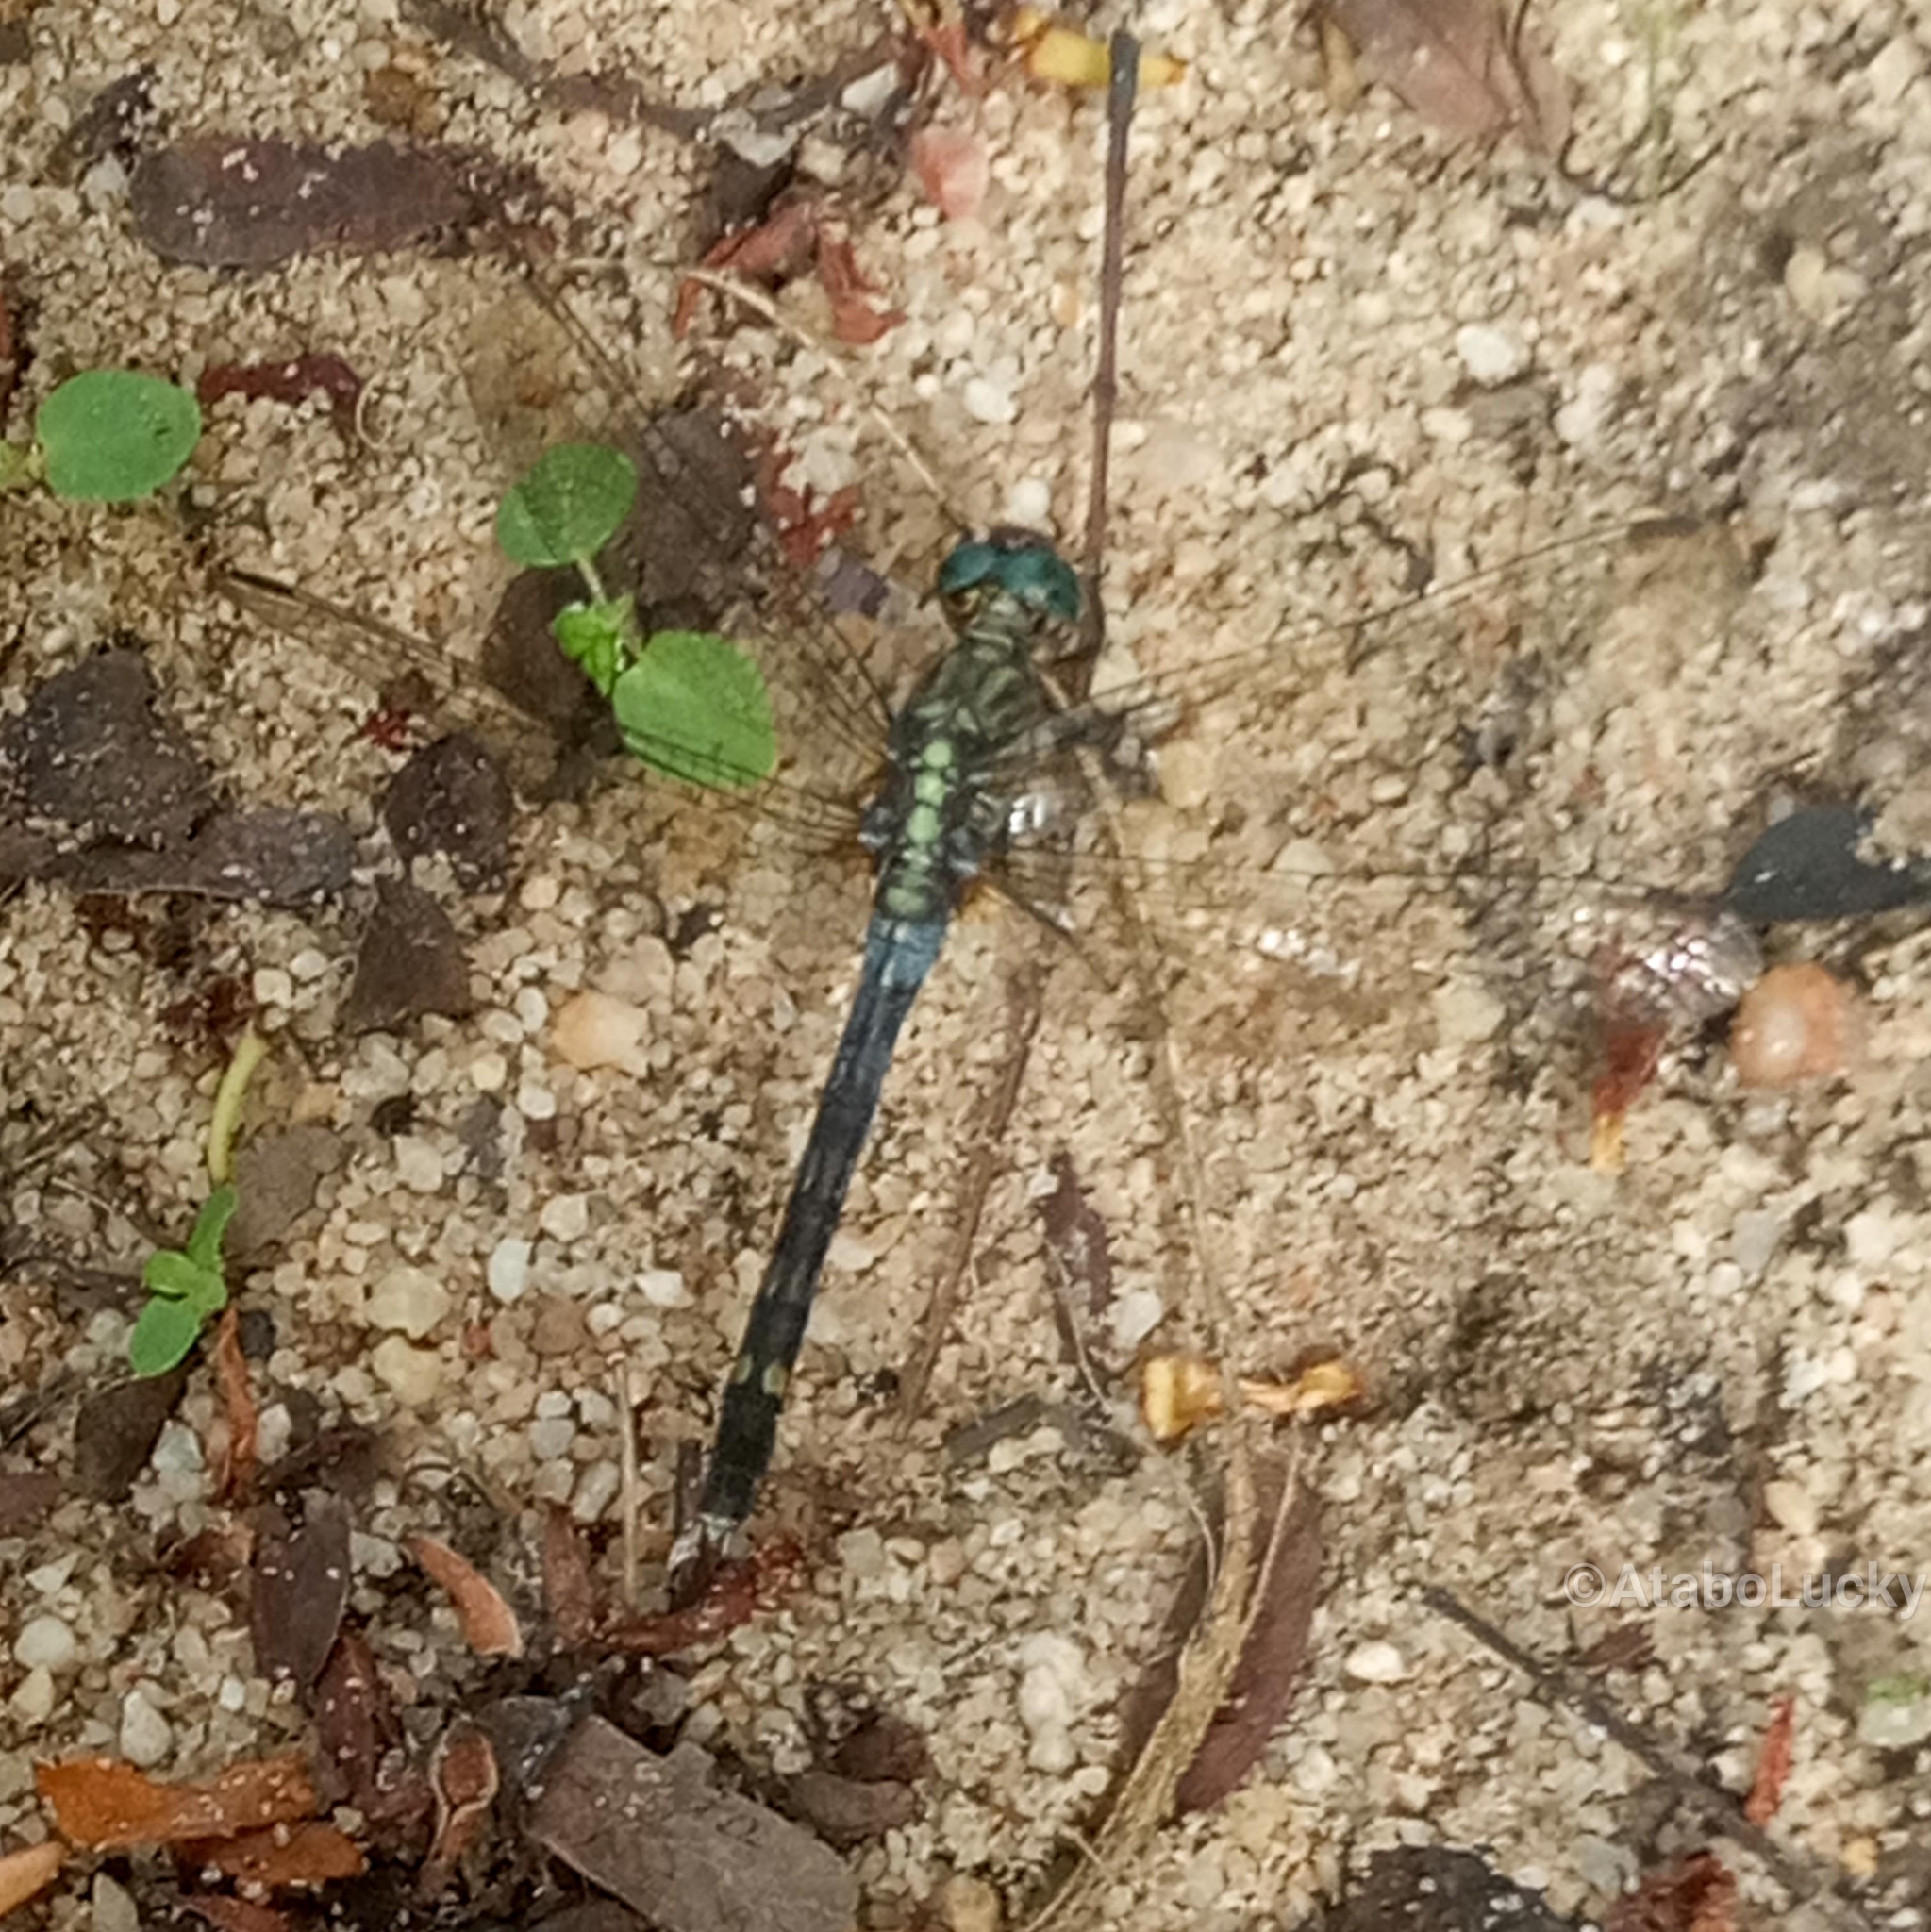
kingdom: Animalia
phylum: Arthropoda
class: Insecta
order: Odonata
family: Libellulidae
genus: Orthetrum
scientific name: Orthetrum julia
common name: Julia skimmer
